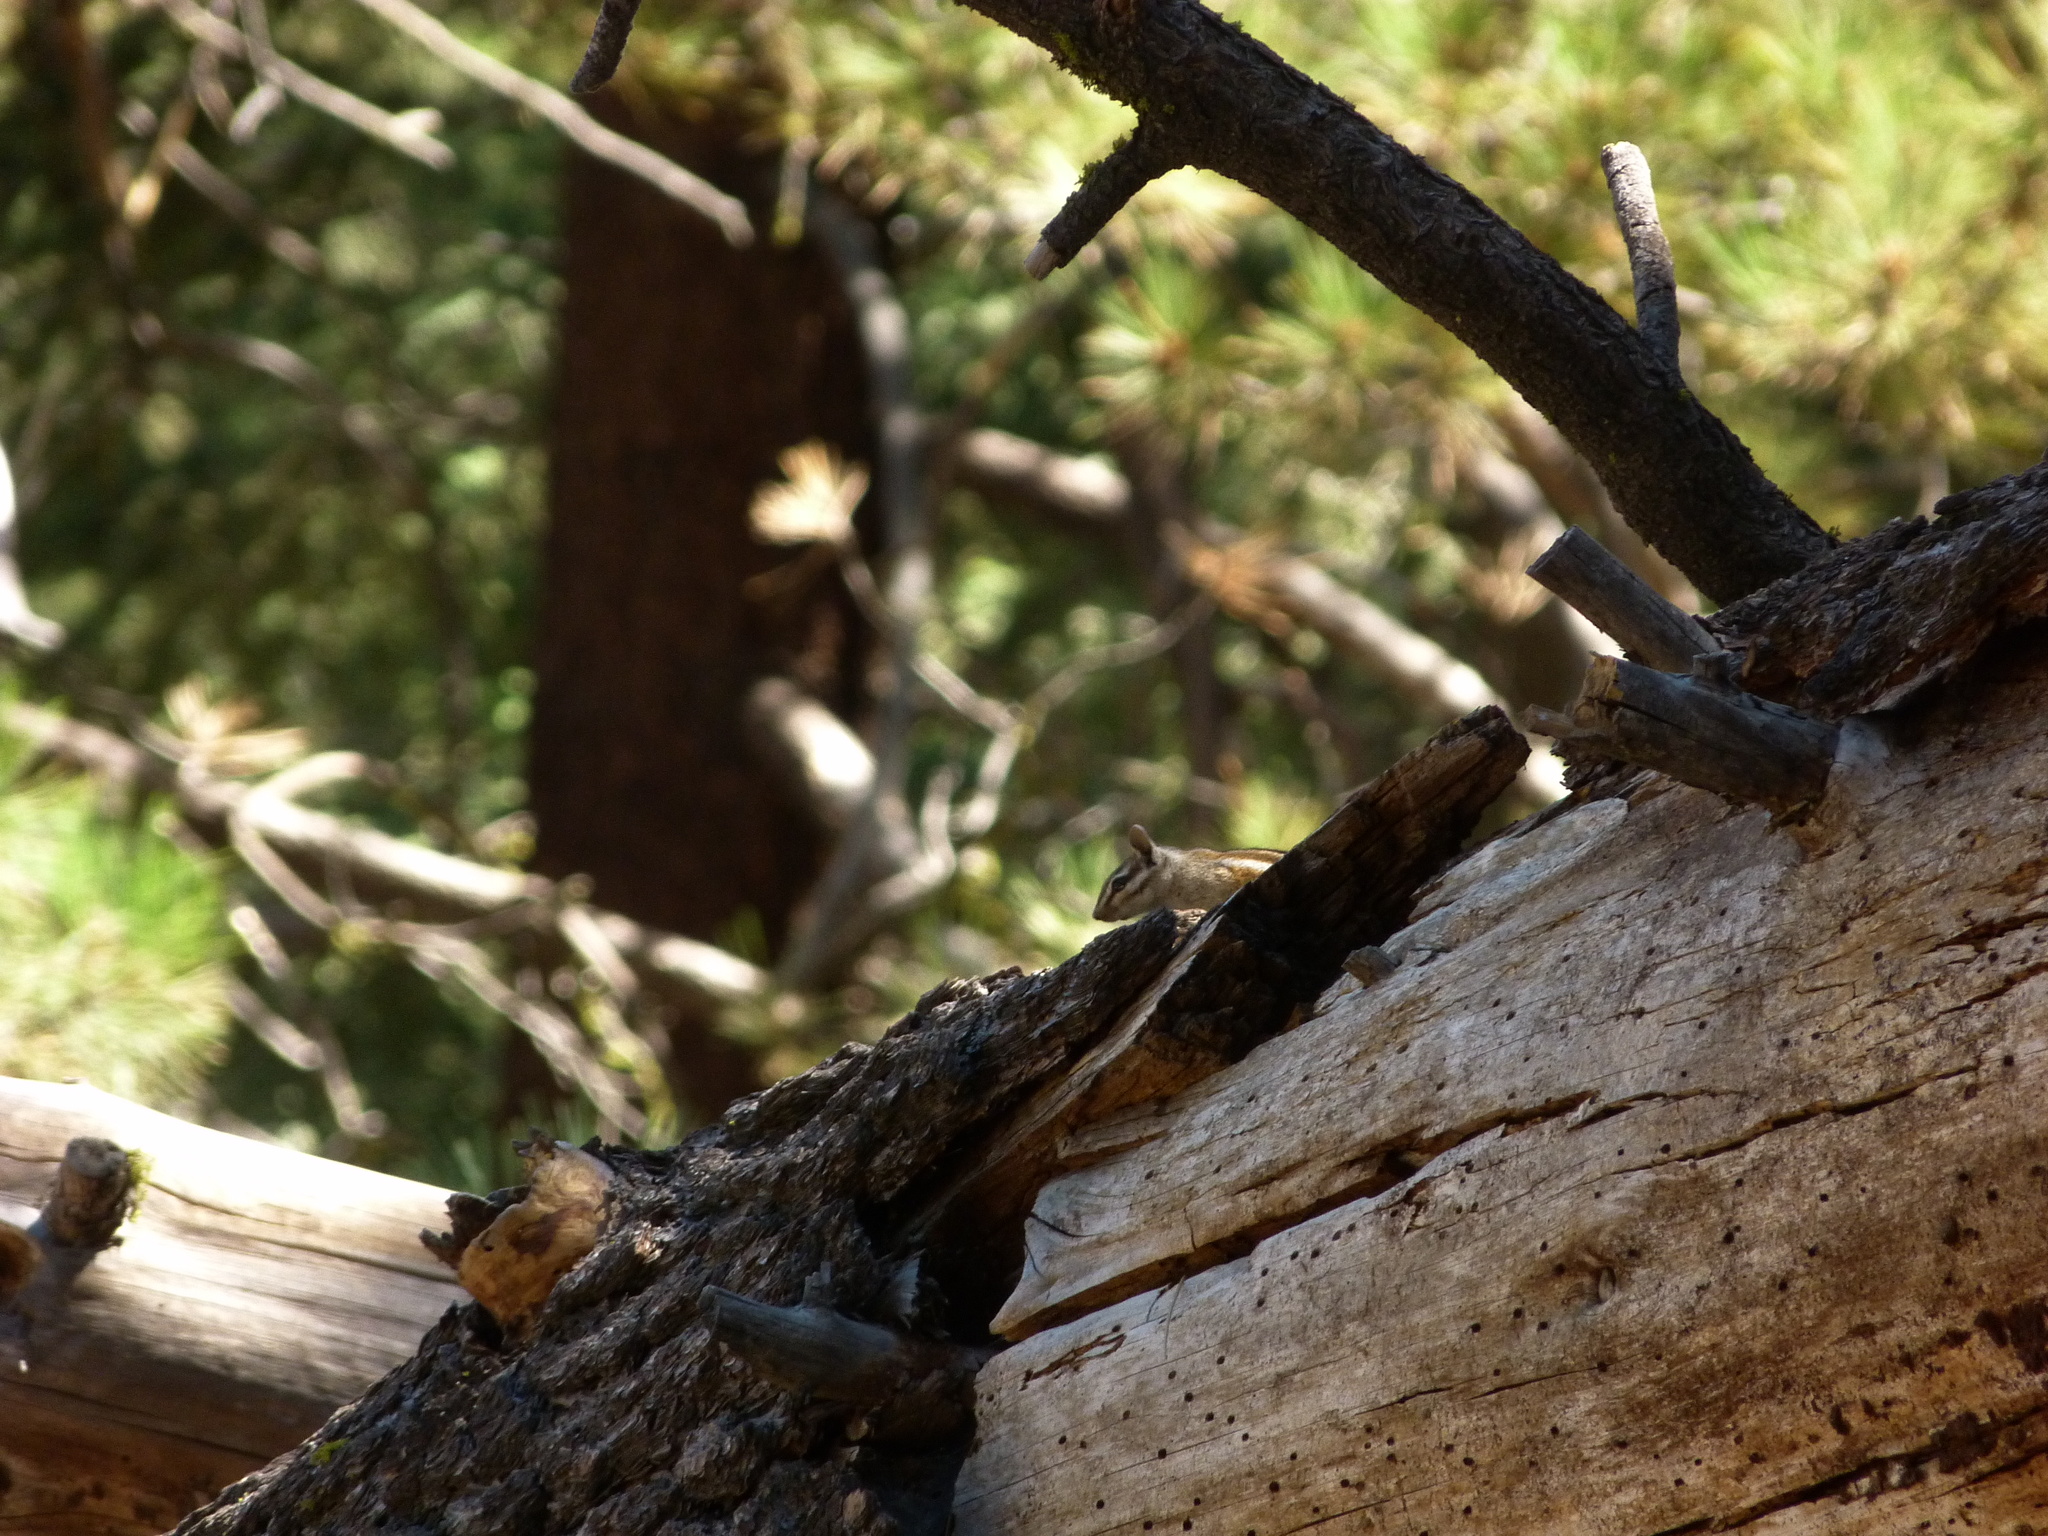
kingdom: Animalia
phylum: Chordata
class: Mammalia
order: Rodentia
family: Sciuridae
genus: Tamias
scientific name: Tamias merriami
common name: Merriam's chipmunk
